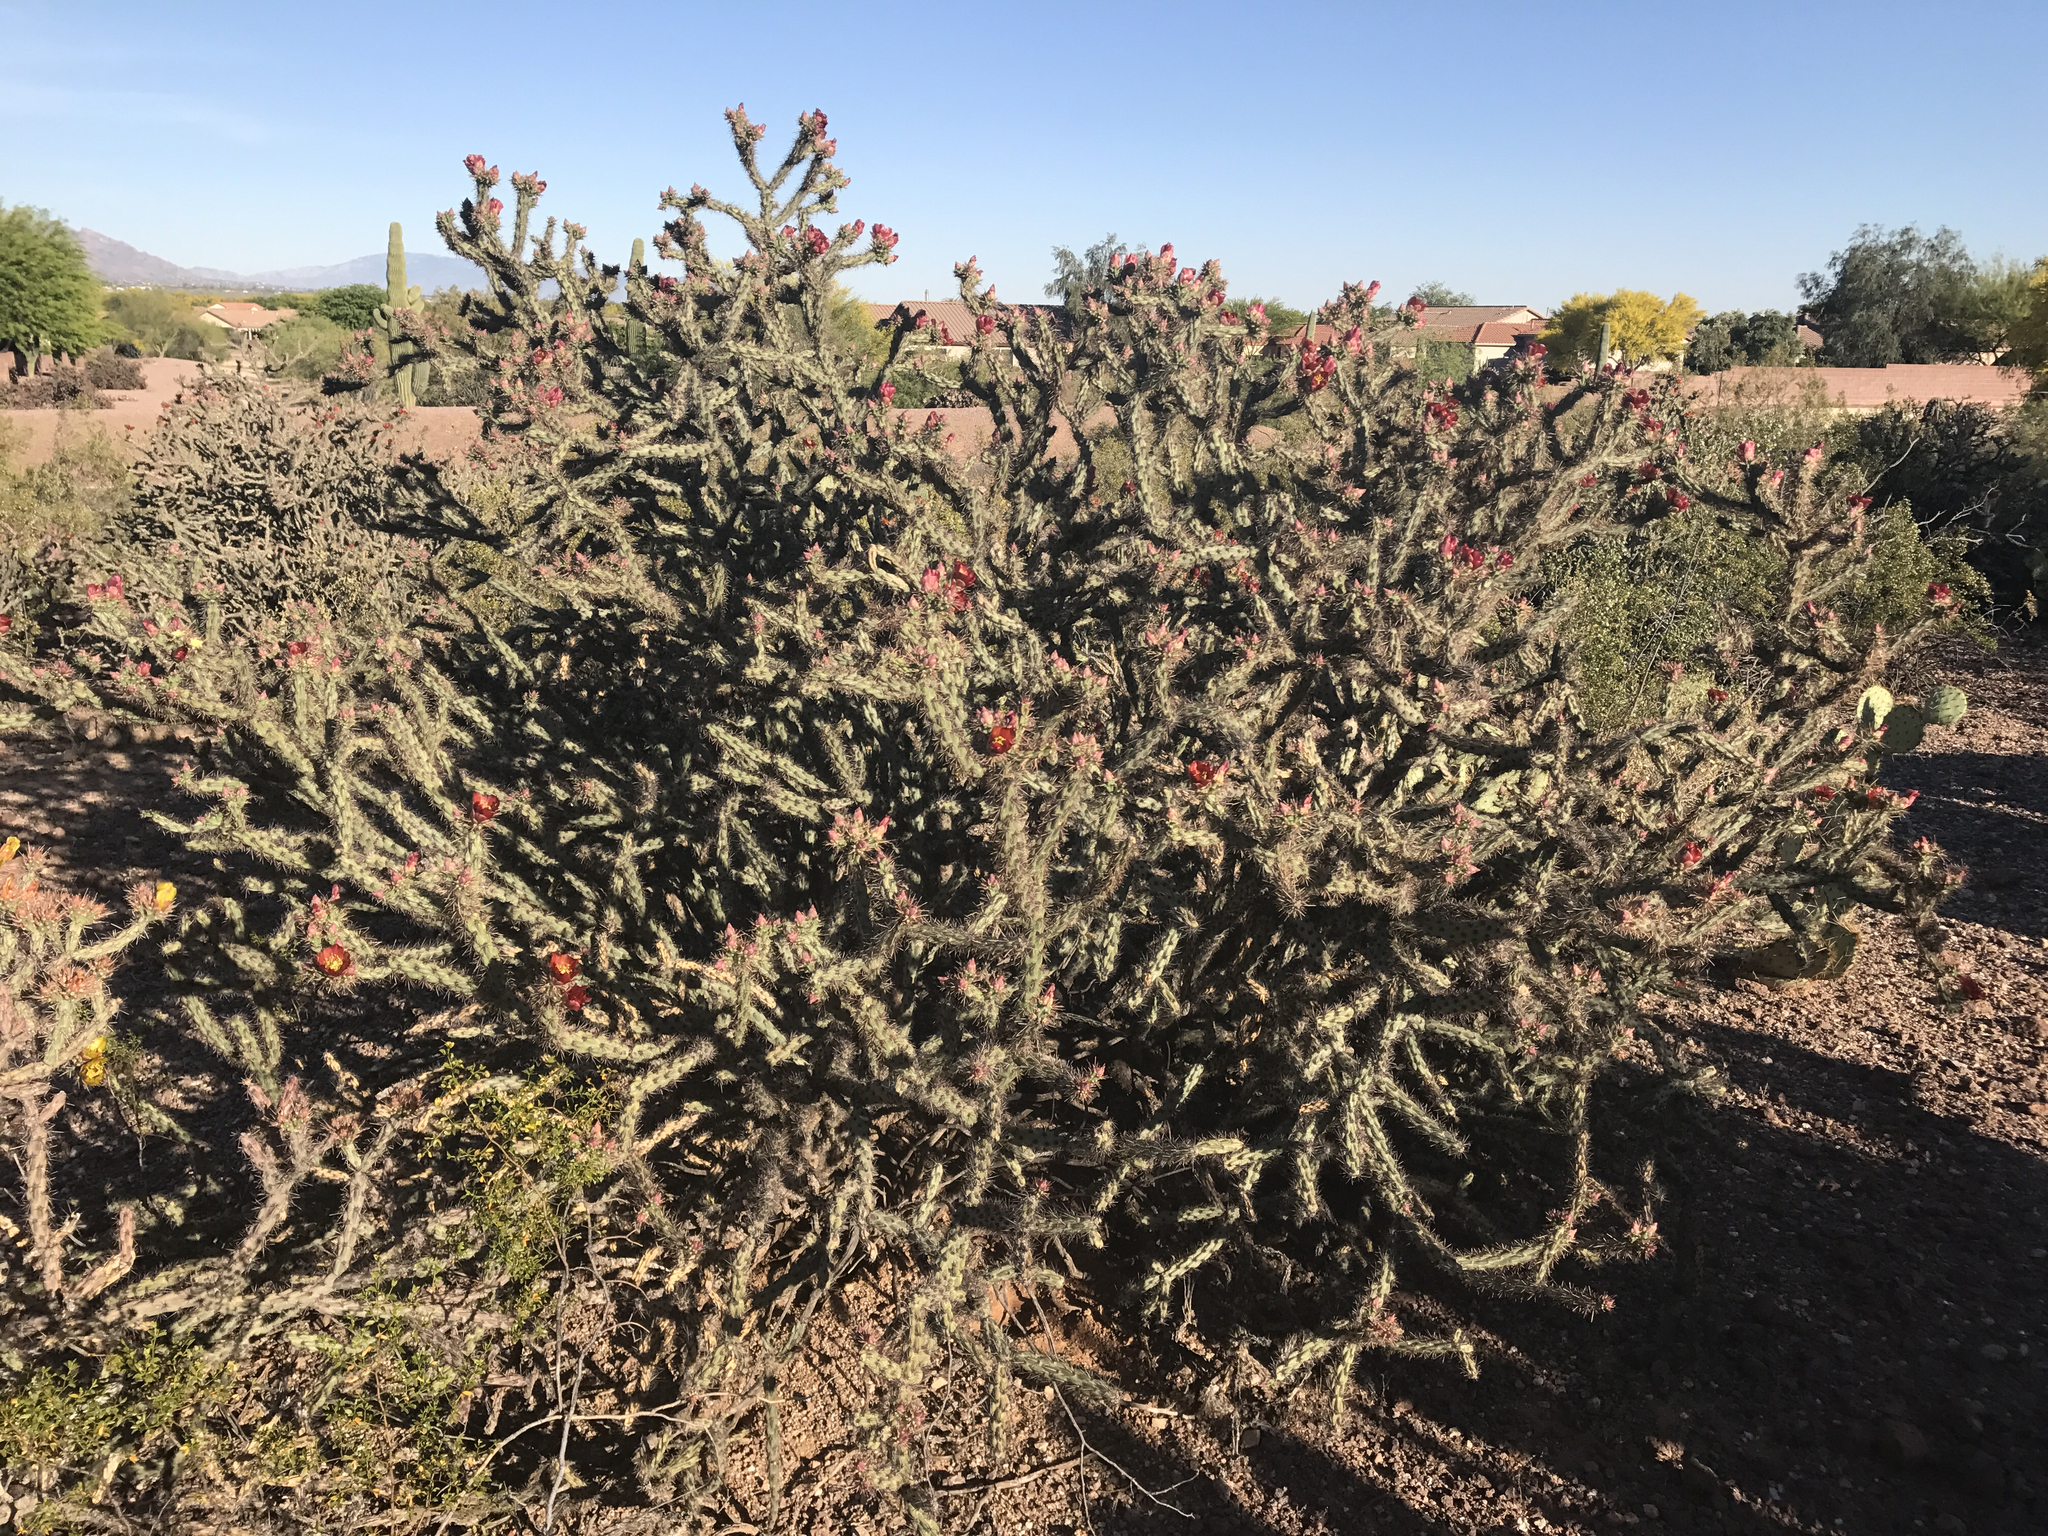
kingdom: Plantae
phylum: Tracheophyta
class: Magnoliopsida
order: Caryophyllales
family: Cactaceae
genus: Cylindropuntia
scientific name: Cylindropuntia thurberi
